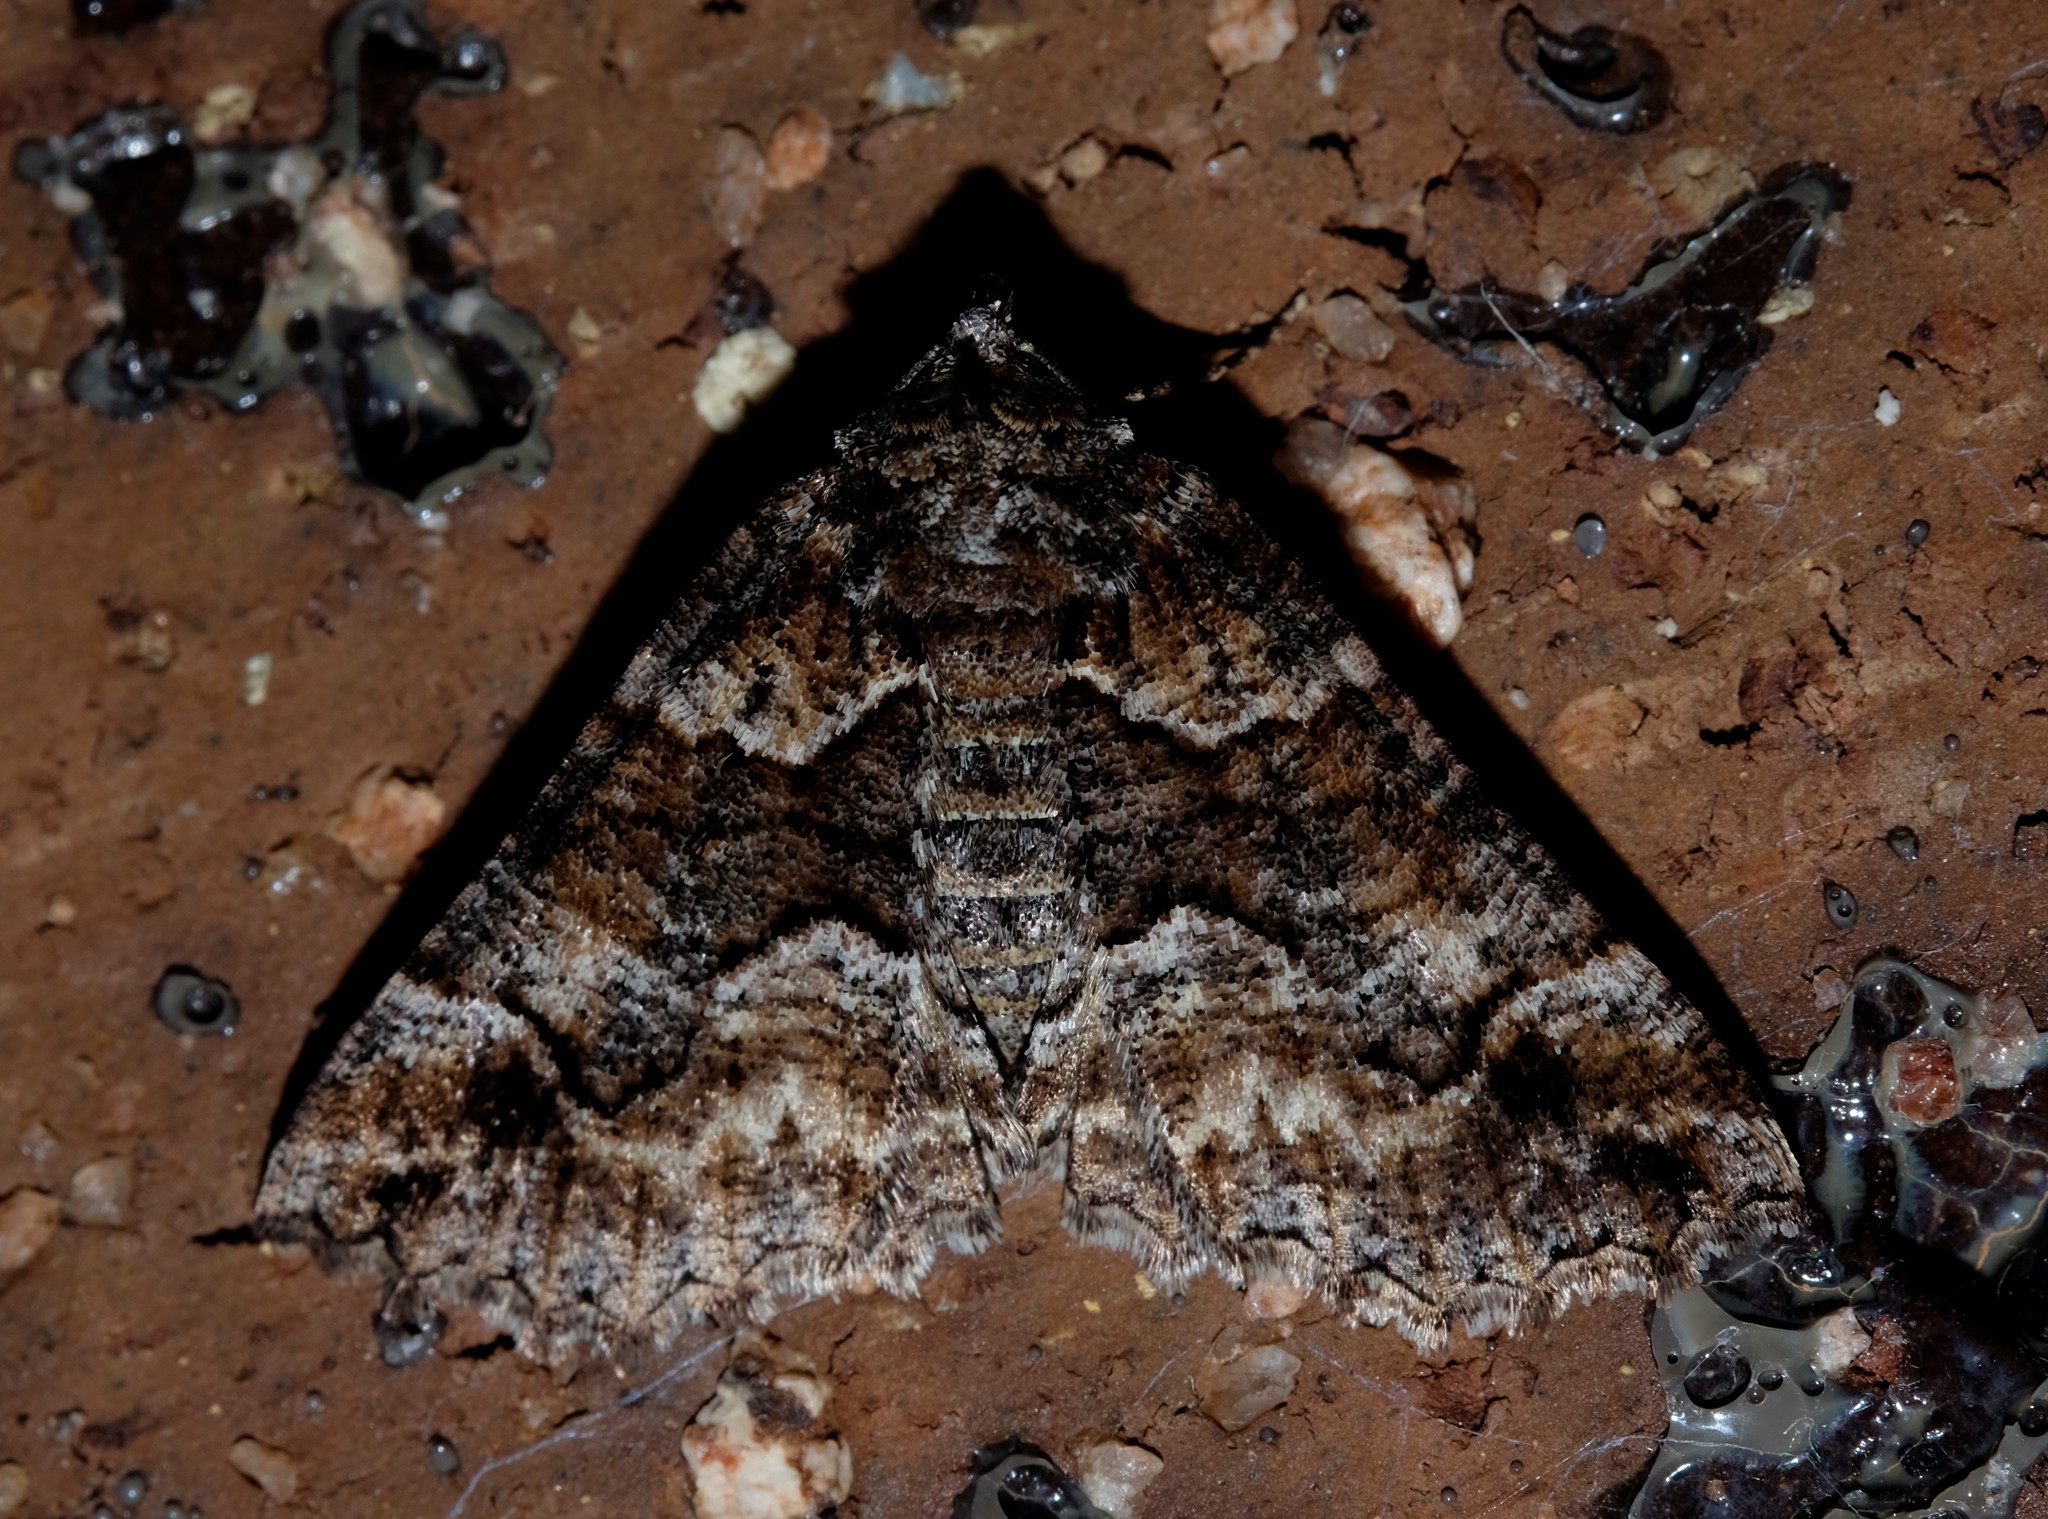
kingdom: Animalia
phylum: Arthropoda
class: Insecta
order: Lepidoptera
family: Geometridae
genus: Gastrina
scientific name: Gastrina cristaria
